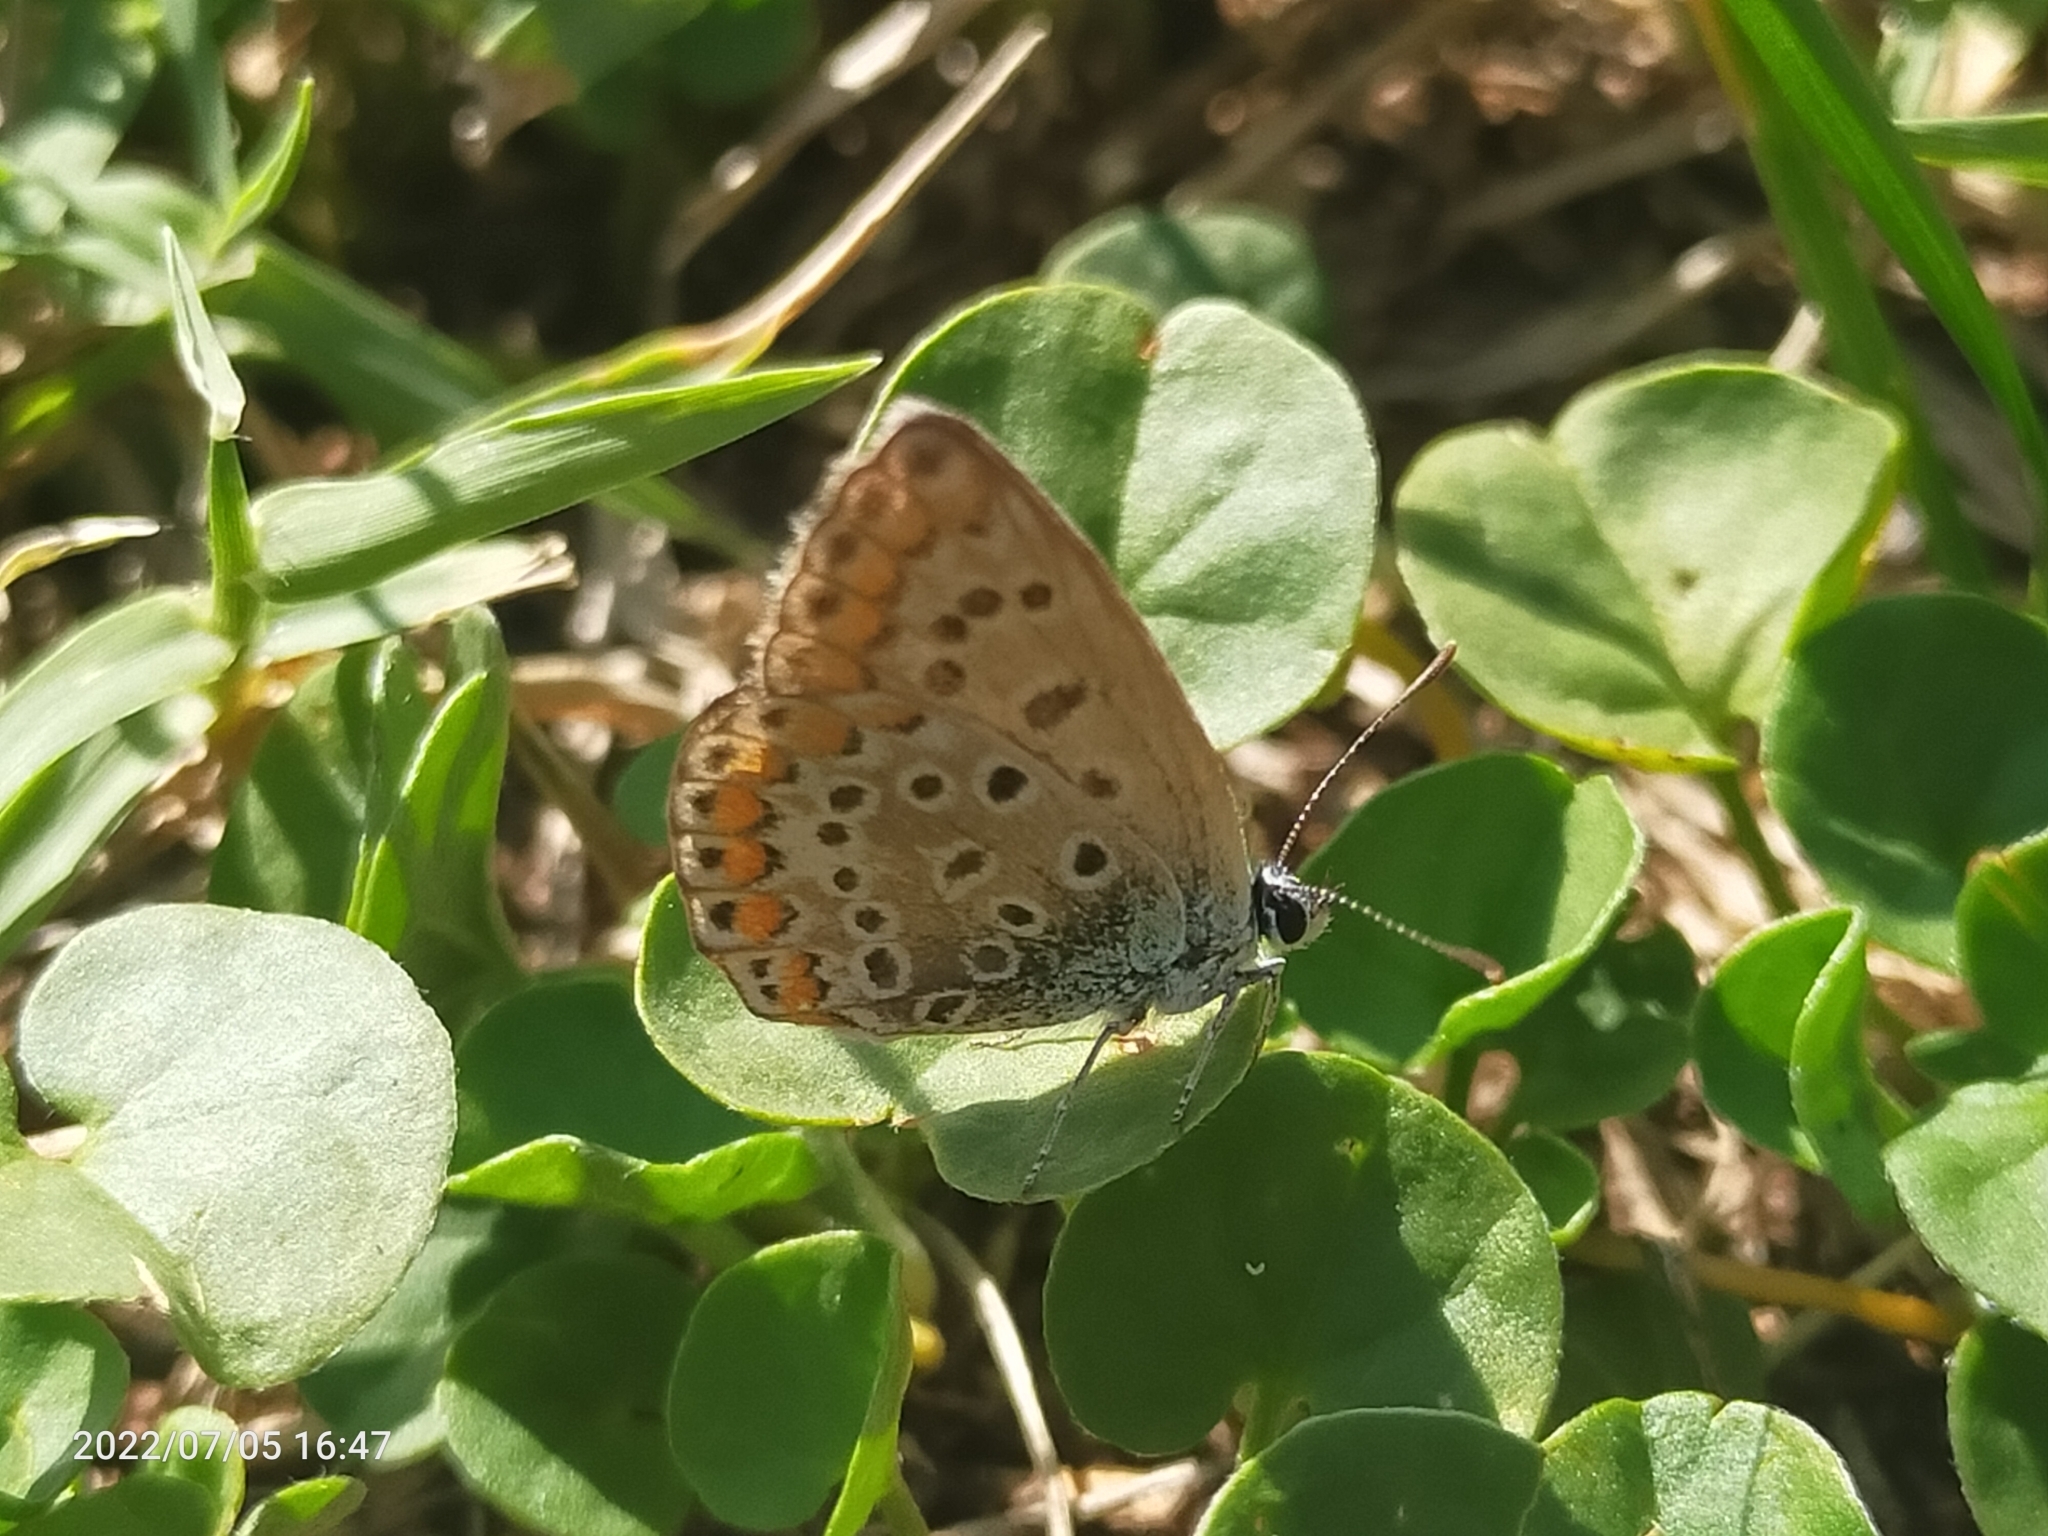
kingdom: Animalia
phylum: Arthropoda
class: Insecta
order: Lepidoptera
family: Lycaenidae
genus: Polyommatus
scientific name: Polyommatus icarus
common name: Common blue
